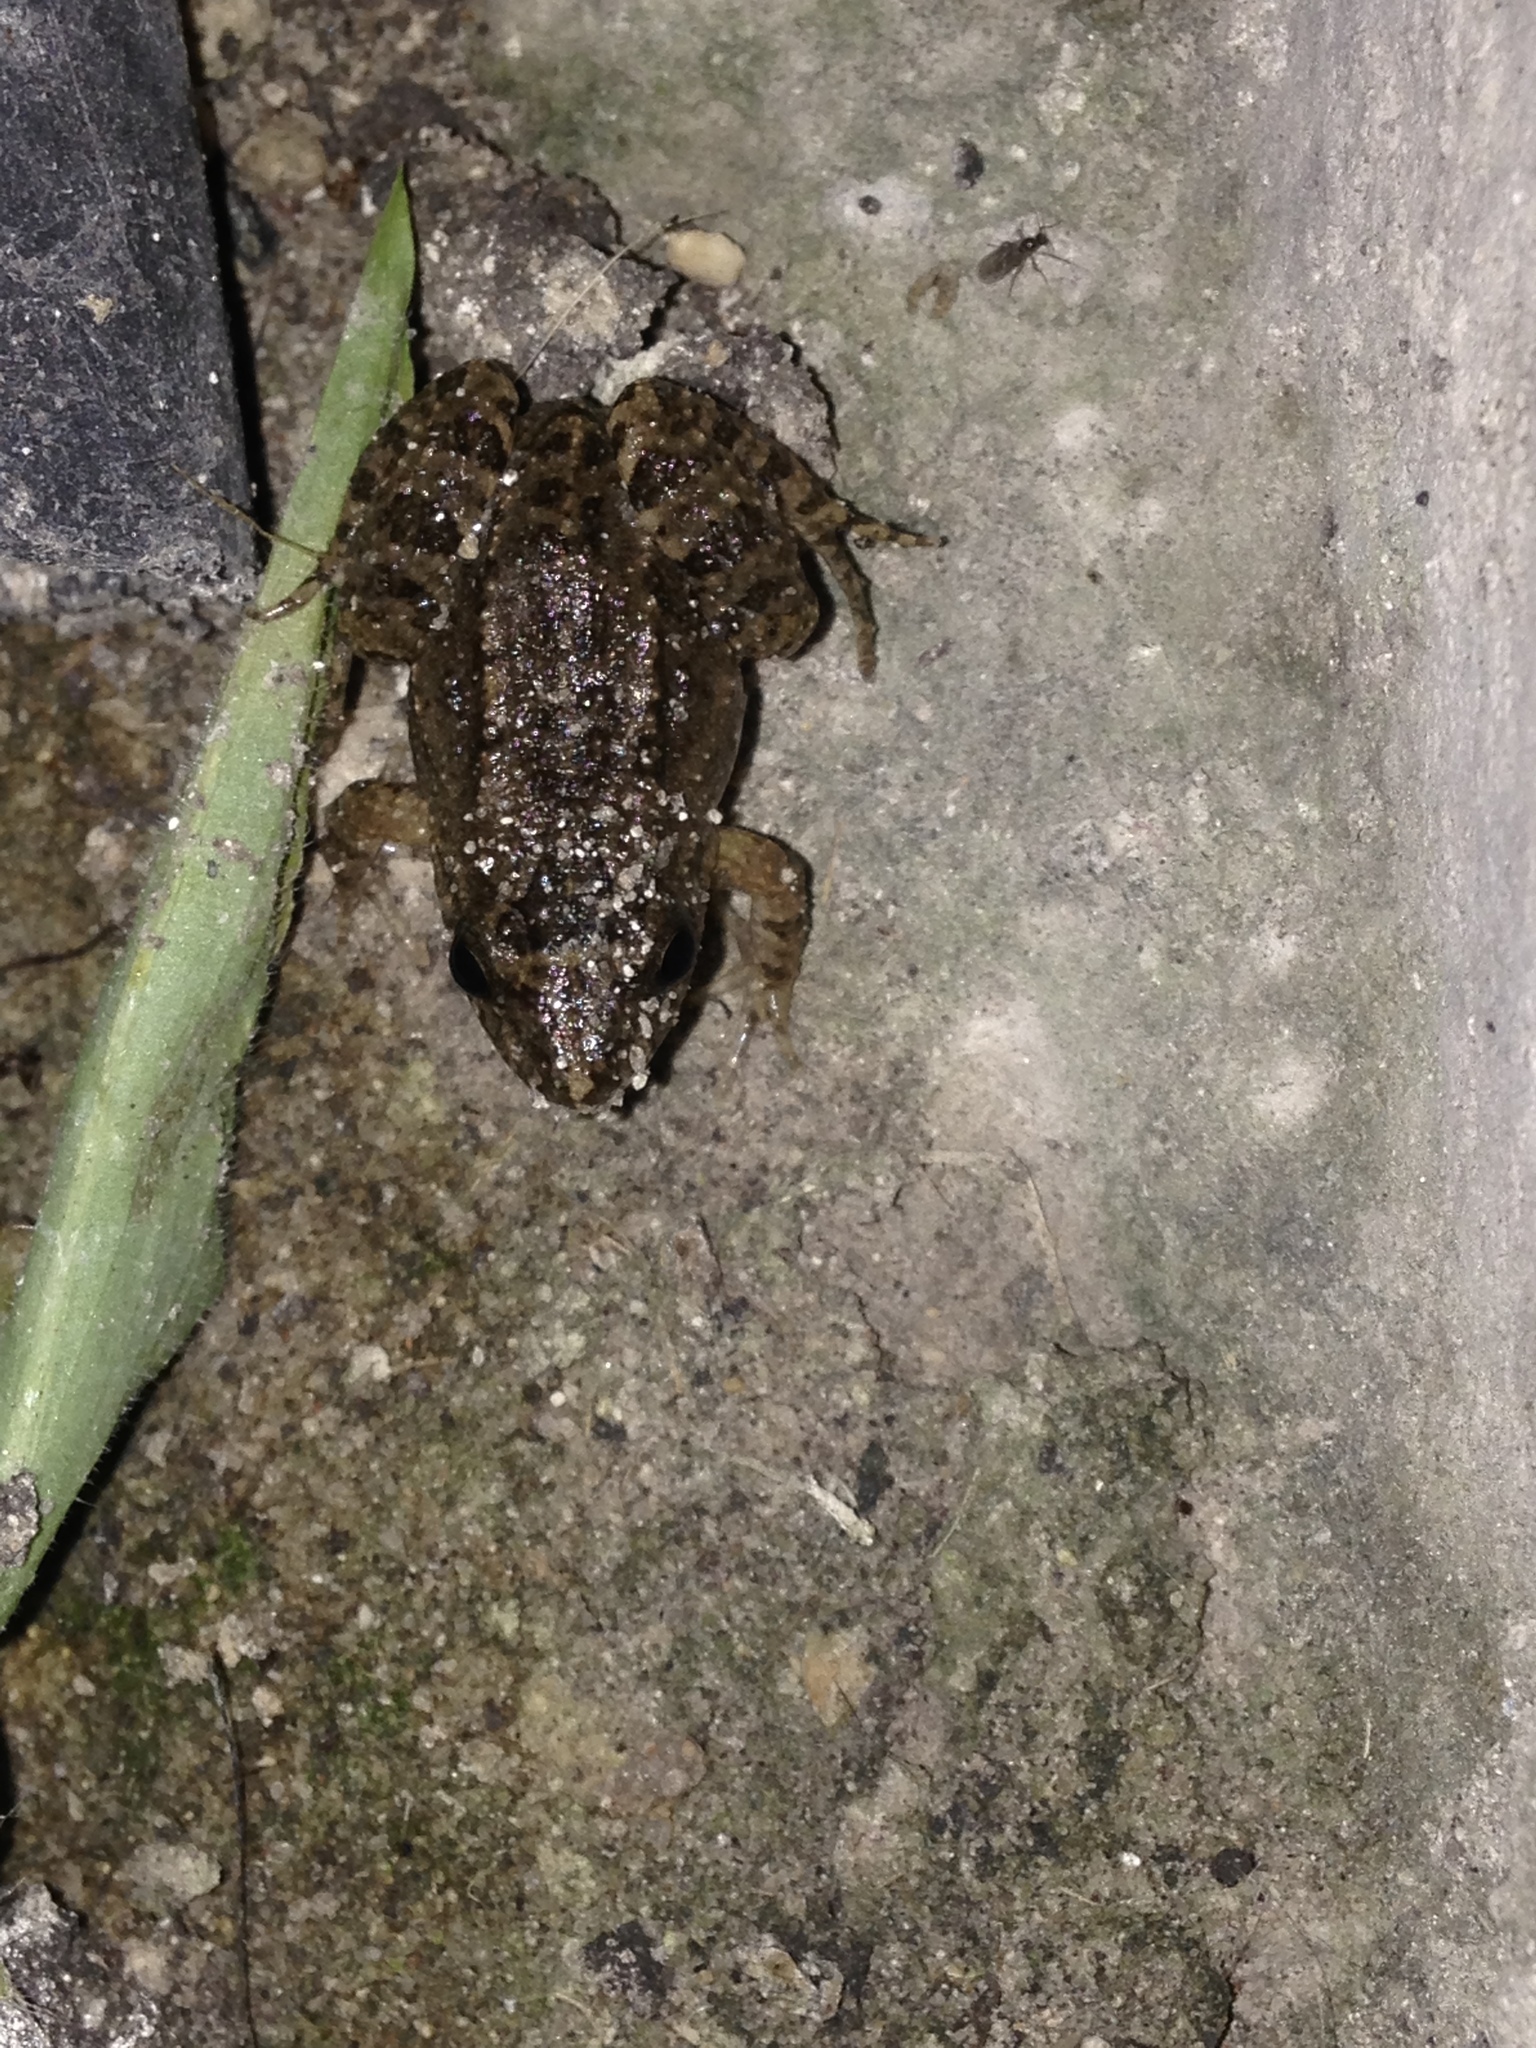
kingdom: Animalia
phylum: Chordata
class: Amphibia
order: Anura
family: Leptodactylidae
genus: Leptodactylus
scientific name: Leptodactylus melanonotus
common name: Fringe-toed foamfrog
